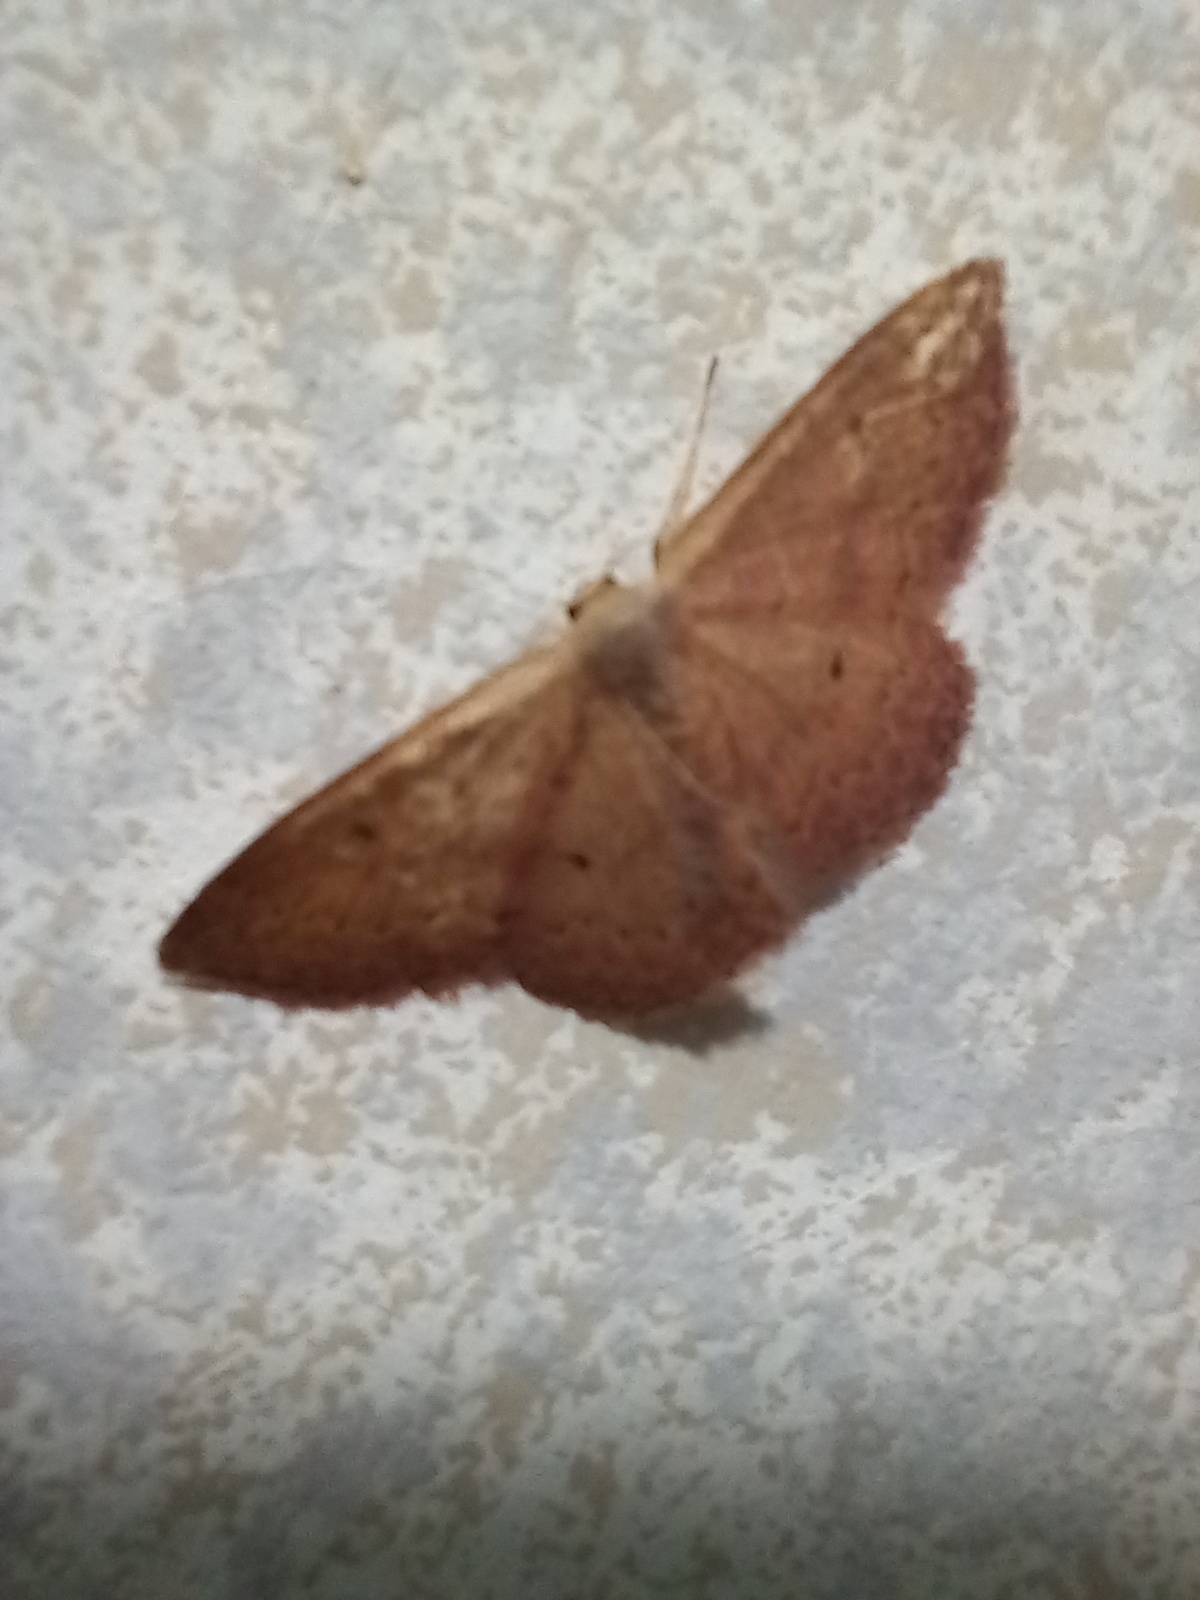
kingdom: Animalia
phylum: Arthropoda
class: Insecta
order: Lepidoptera
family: Geometridae
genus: Idaea
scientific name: Idaea eugeniata
